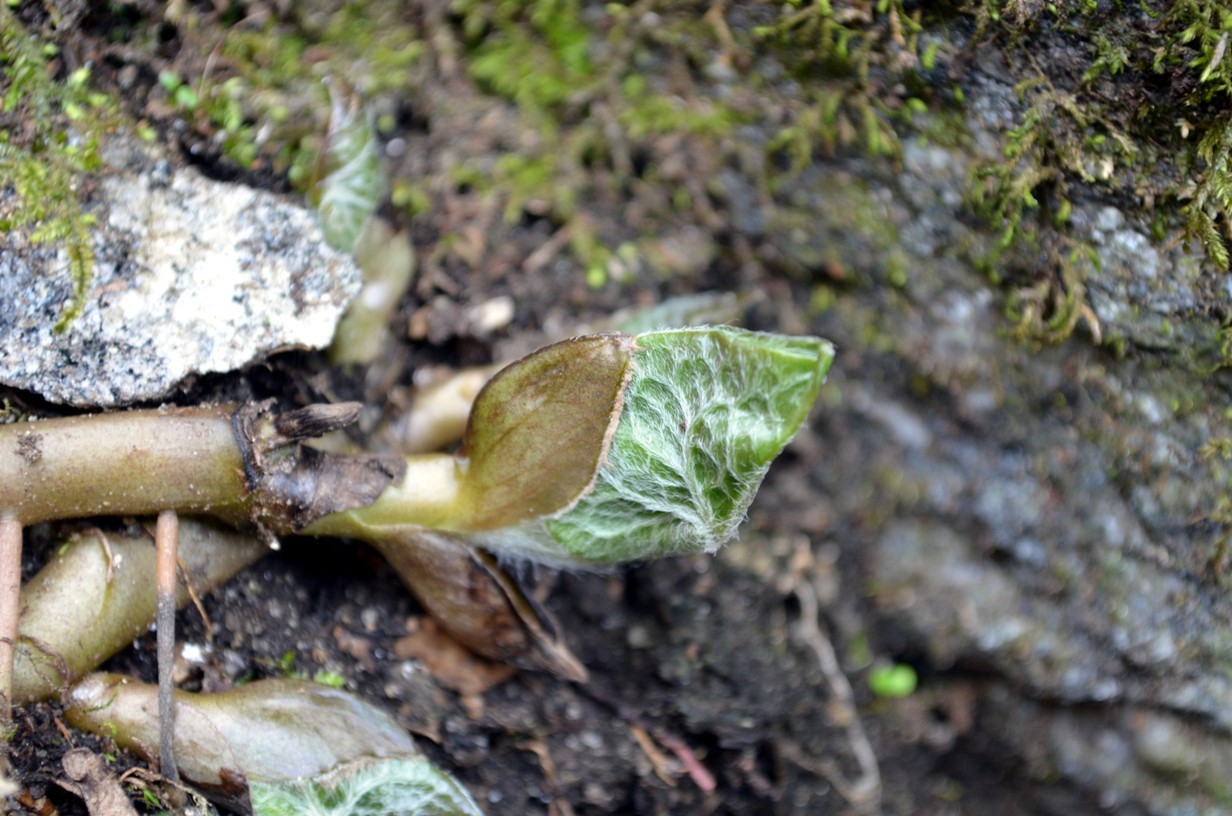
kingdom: Plantae
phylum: Tracheophyta
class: Magnoliopsida
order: Piperales
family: Aristolochiaceae
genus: Asarum
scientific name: Asarum canadense
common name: Wild ginger
